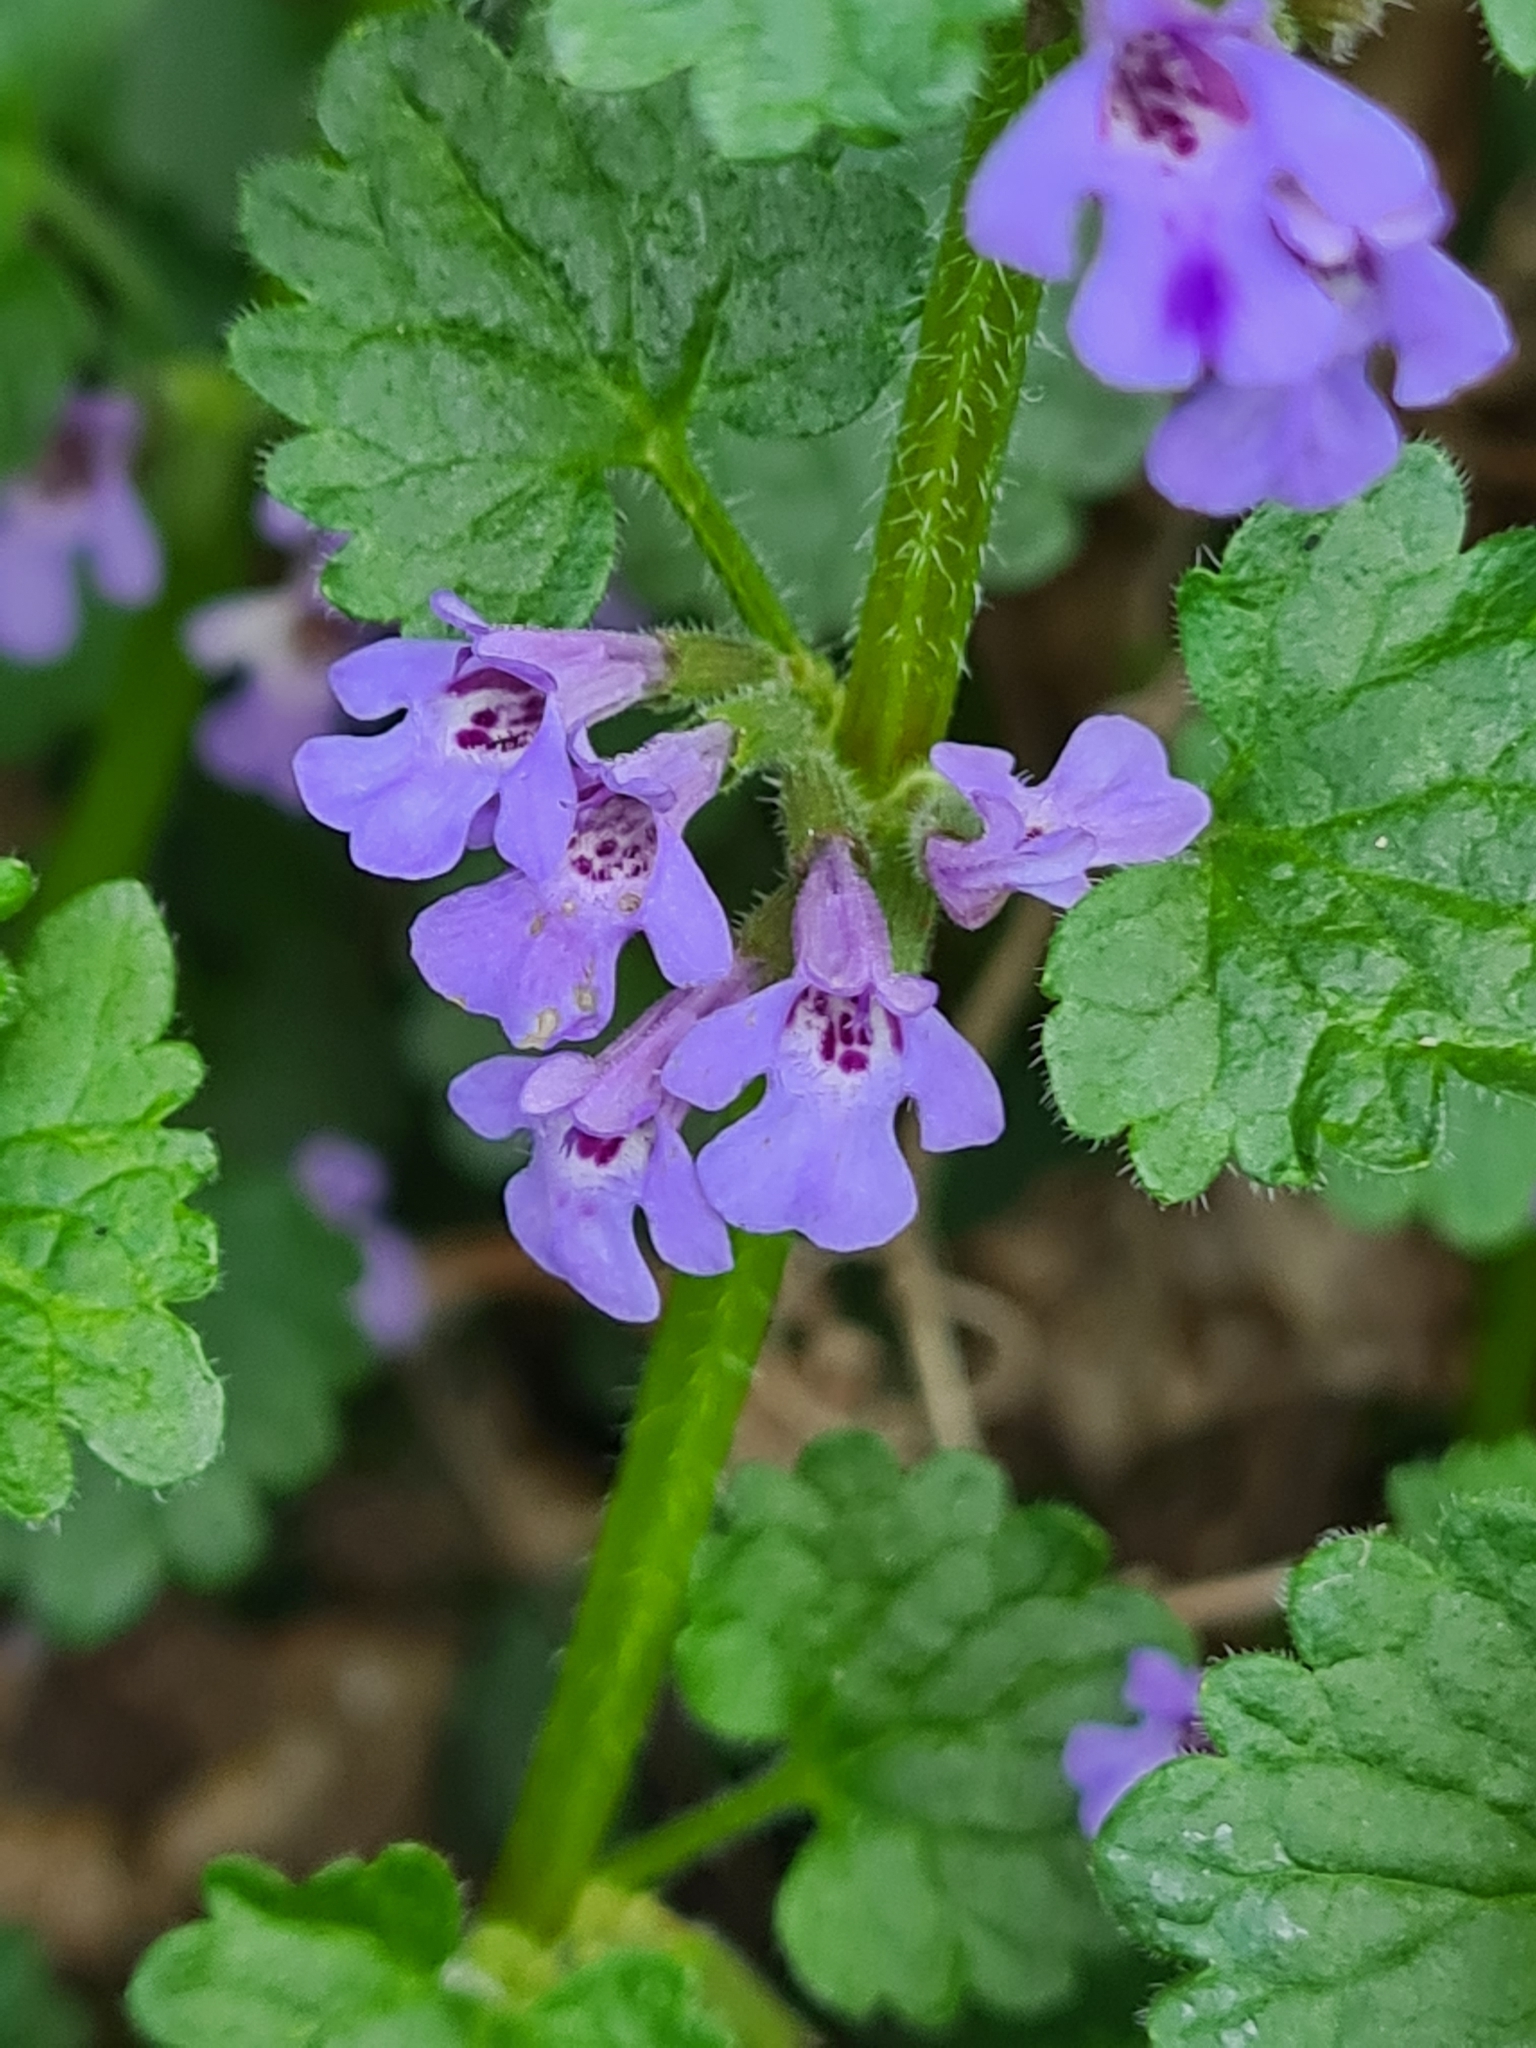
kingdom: Plantae
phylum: Tracheophyta
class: Magnoliopsida
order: Lamiales
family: Lamiaceae
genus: Glechoma
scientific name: Glechoma hederacea
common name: Ground ivy
